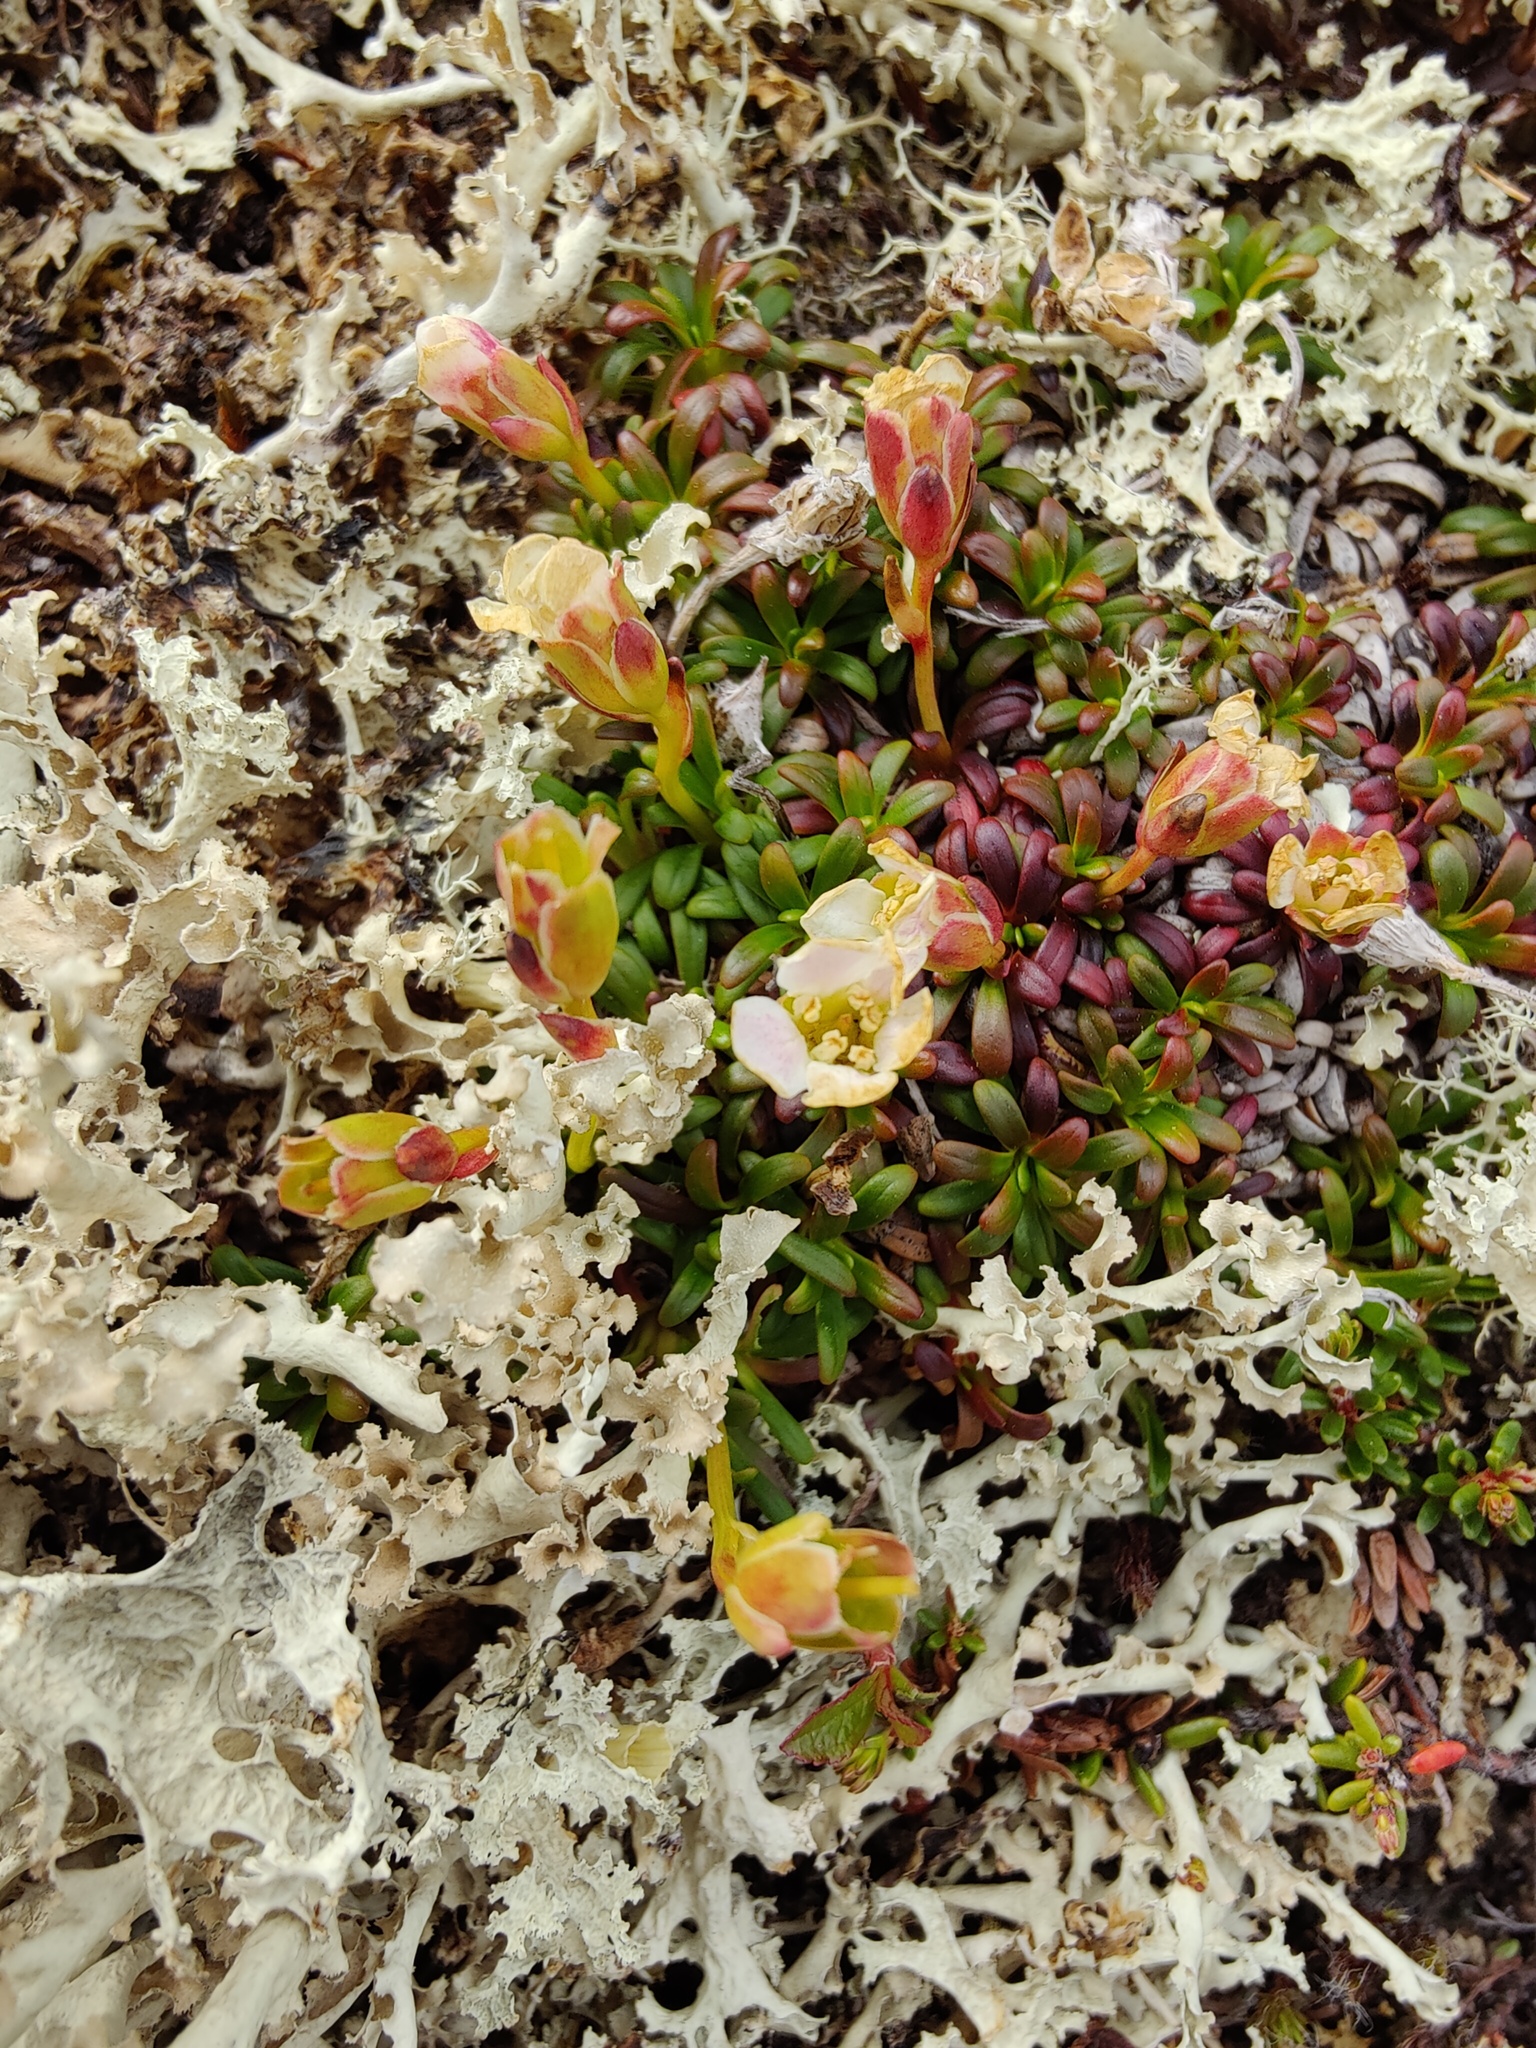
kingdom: Plantae
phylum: Tracheophyta
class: Magnoliopsida
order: Ericales
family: Diapensiaceae
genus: Diapensia
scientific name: Diapensia lapponica
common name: Diapensia
